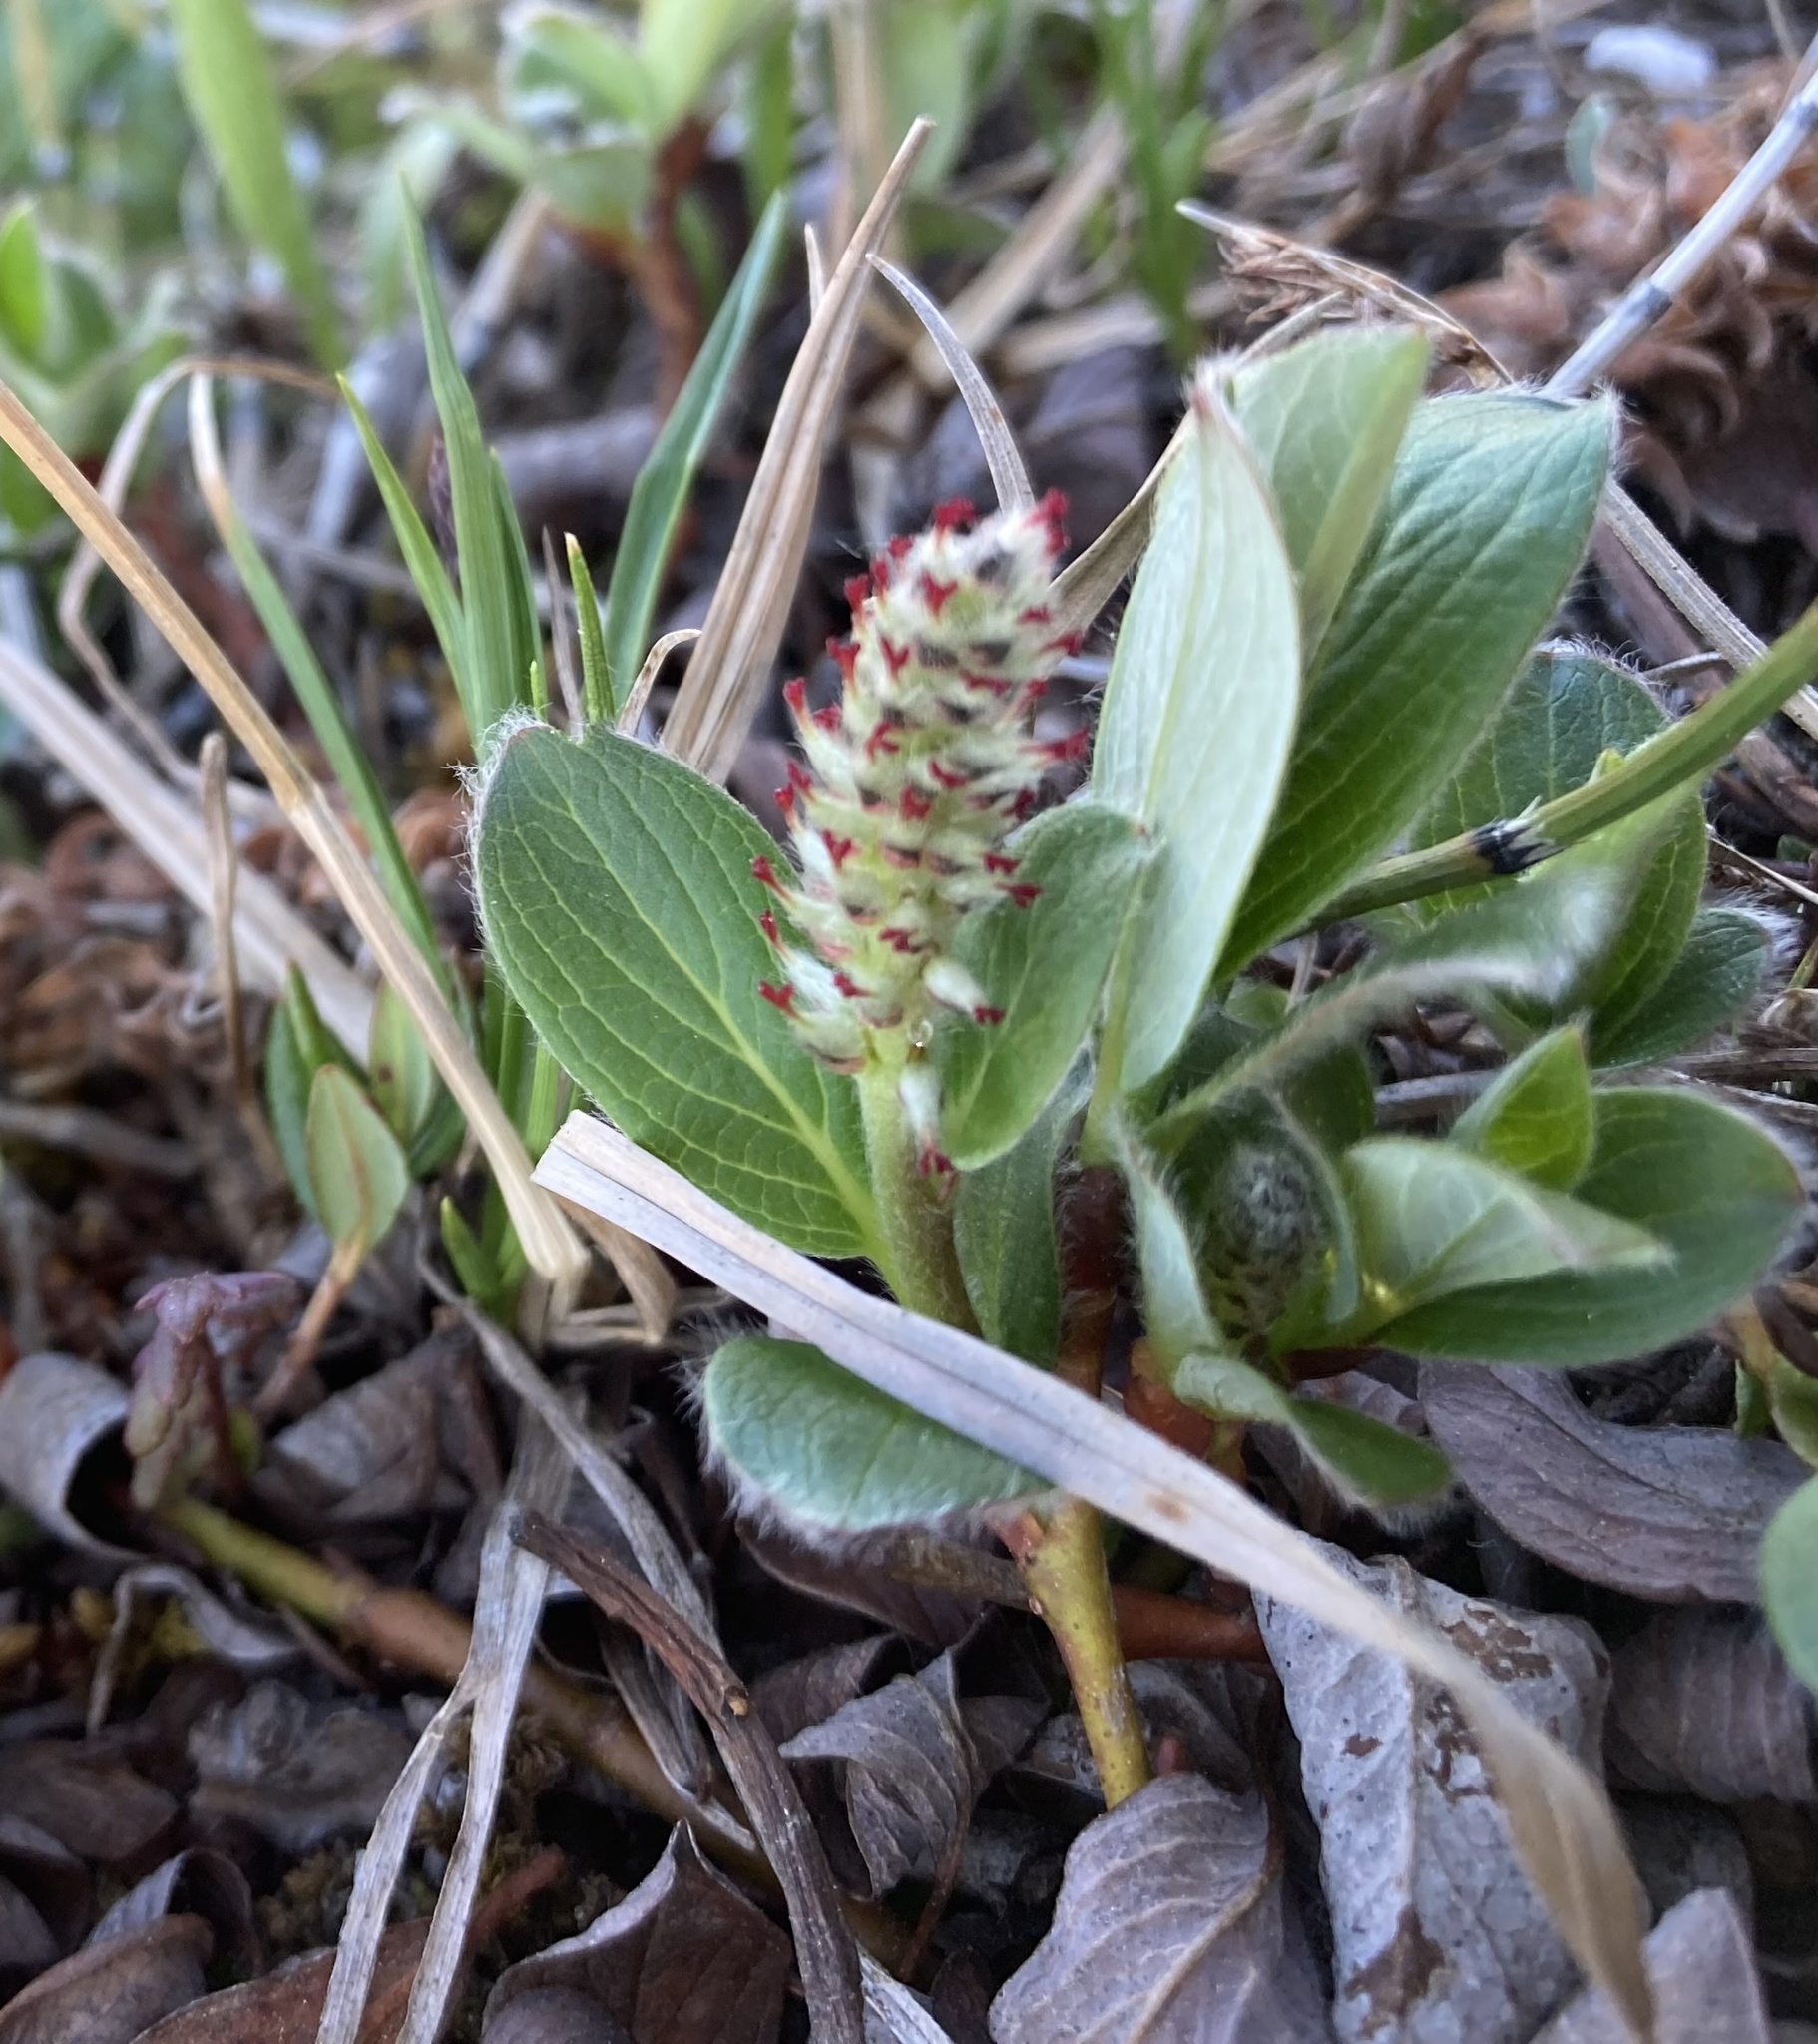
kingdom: Plantae
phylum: Tracheophyta
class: Magnoliopsida
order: Malpighiales
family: Salicaceae
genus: Salix
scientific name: Salix arctica
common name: Arctic willow
